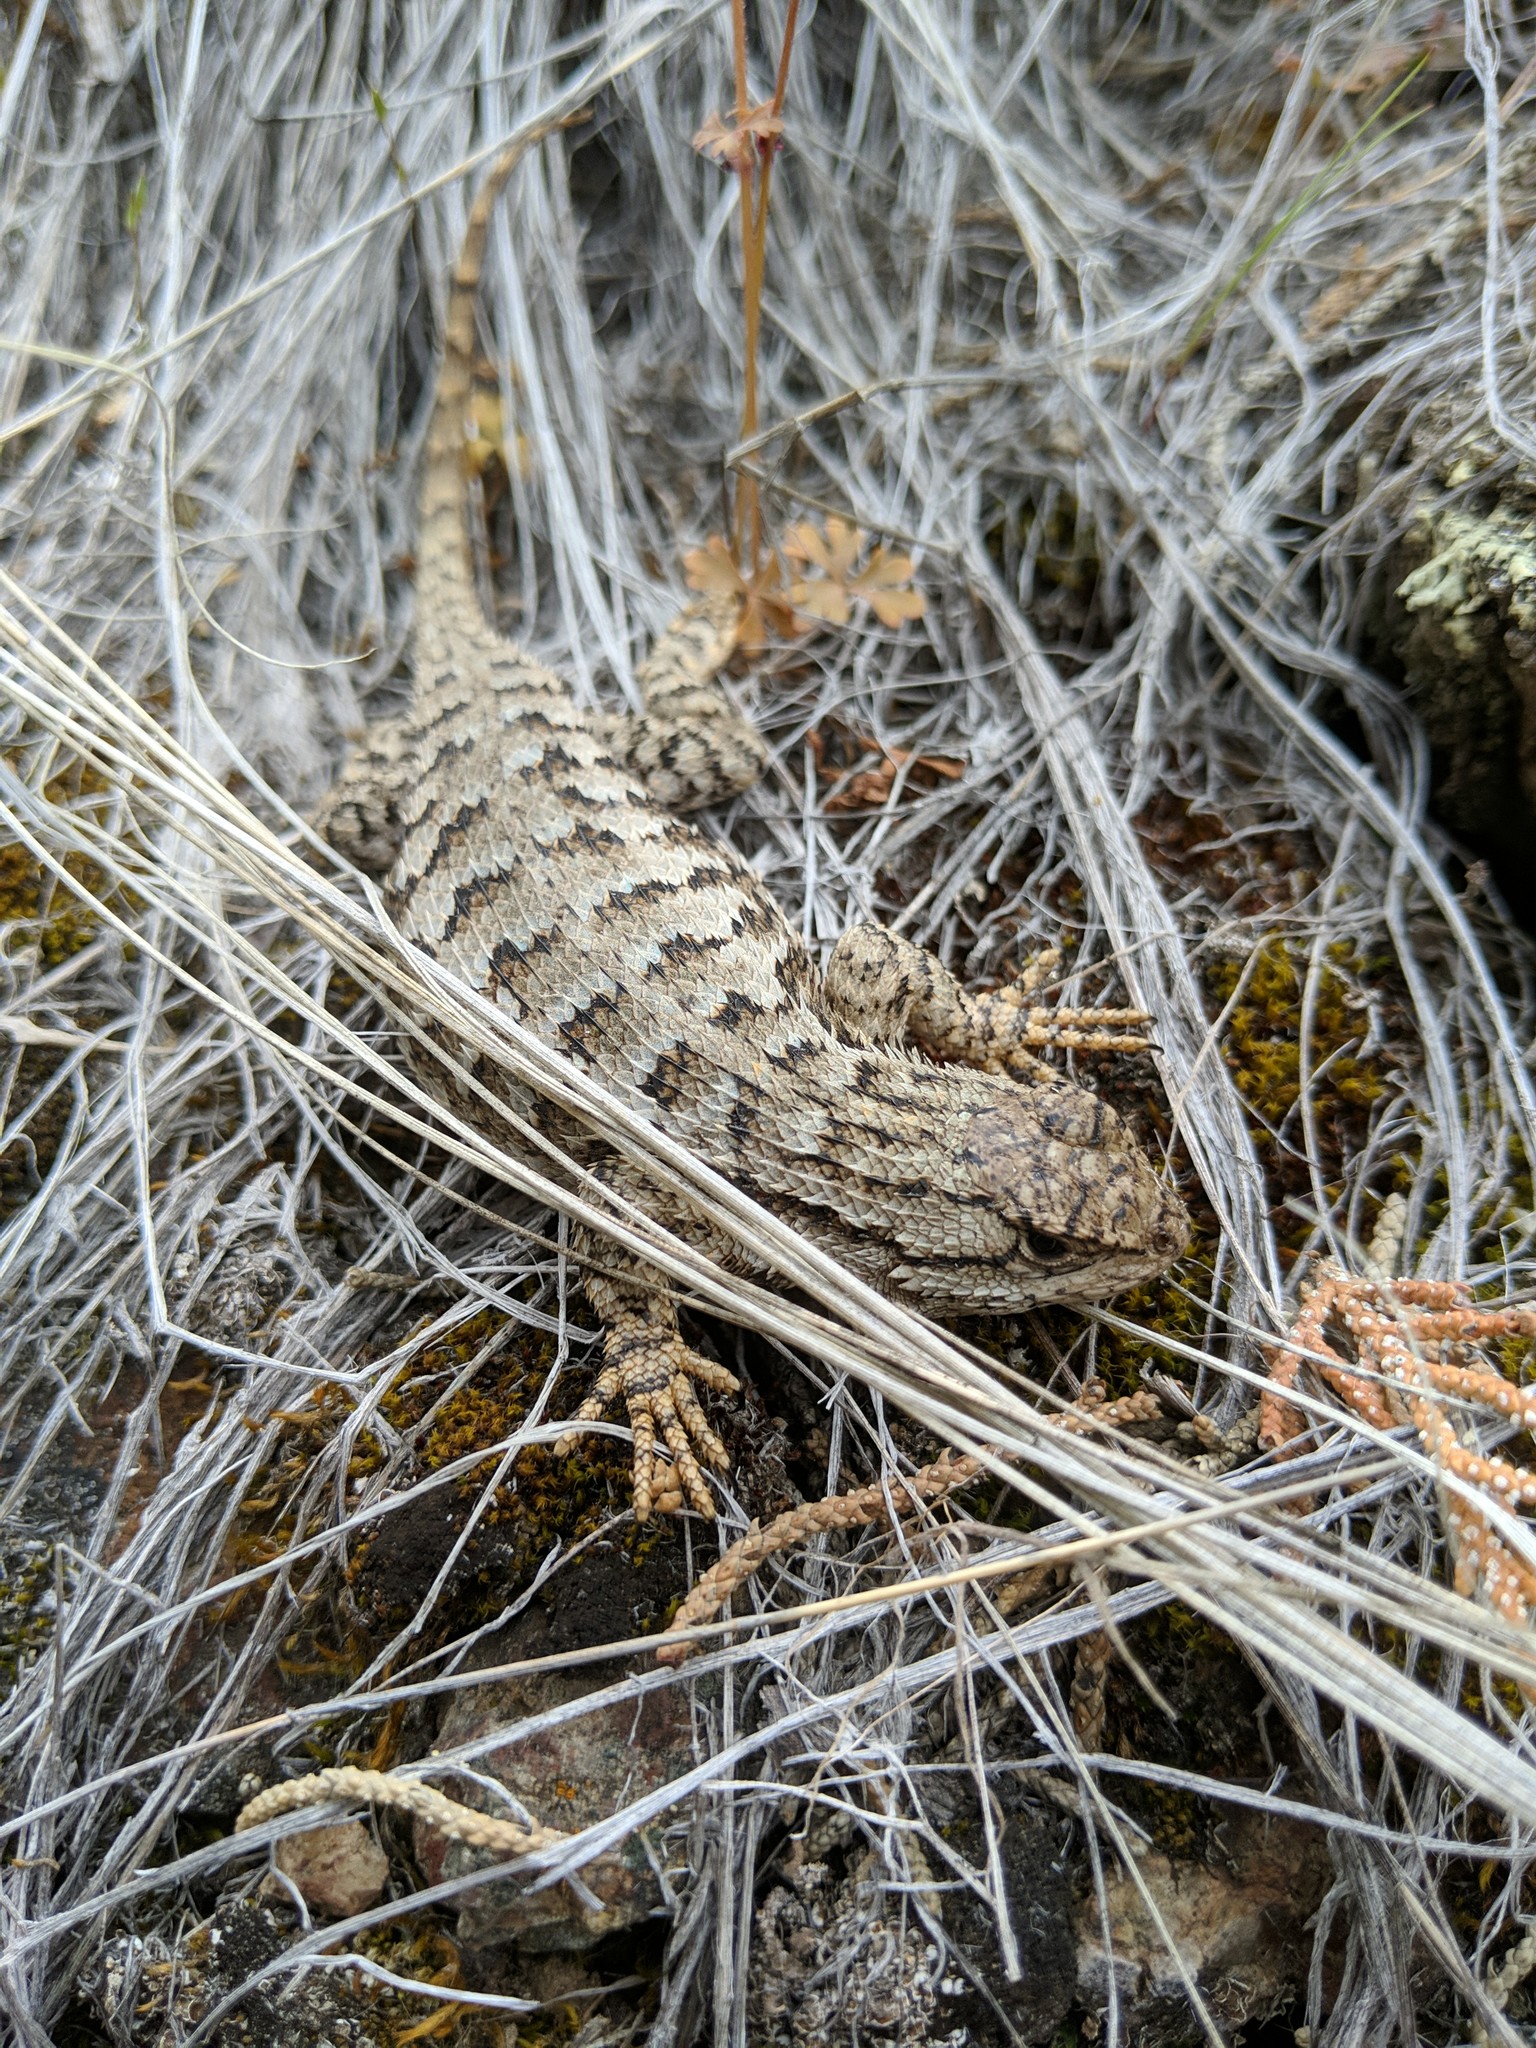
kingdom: Animalia
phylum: Chordata
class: Squamata
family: Phrynosomatidae
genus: Sceloporus
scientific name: Sceloporus occidentalis
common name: Western fence lizard
